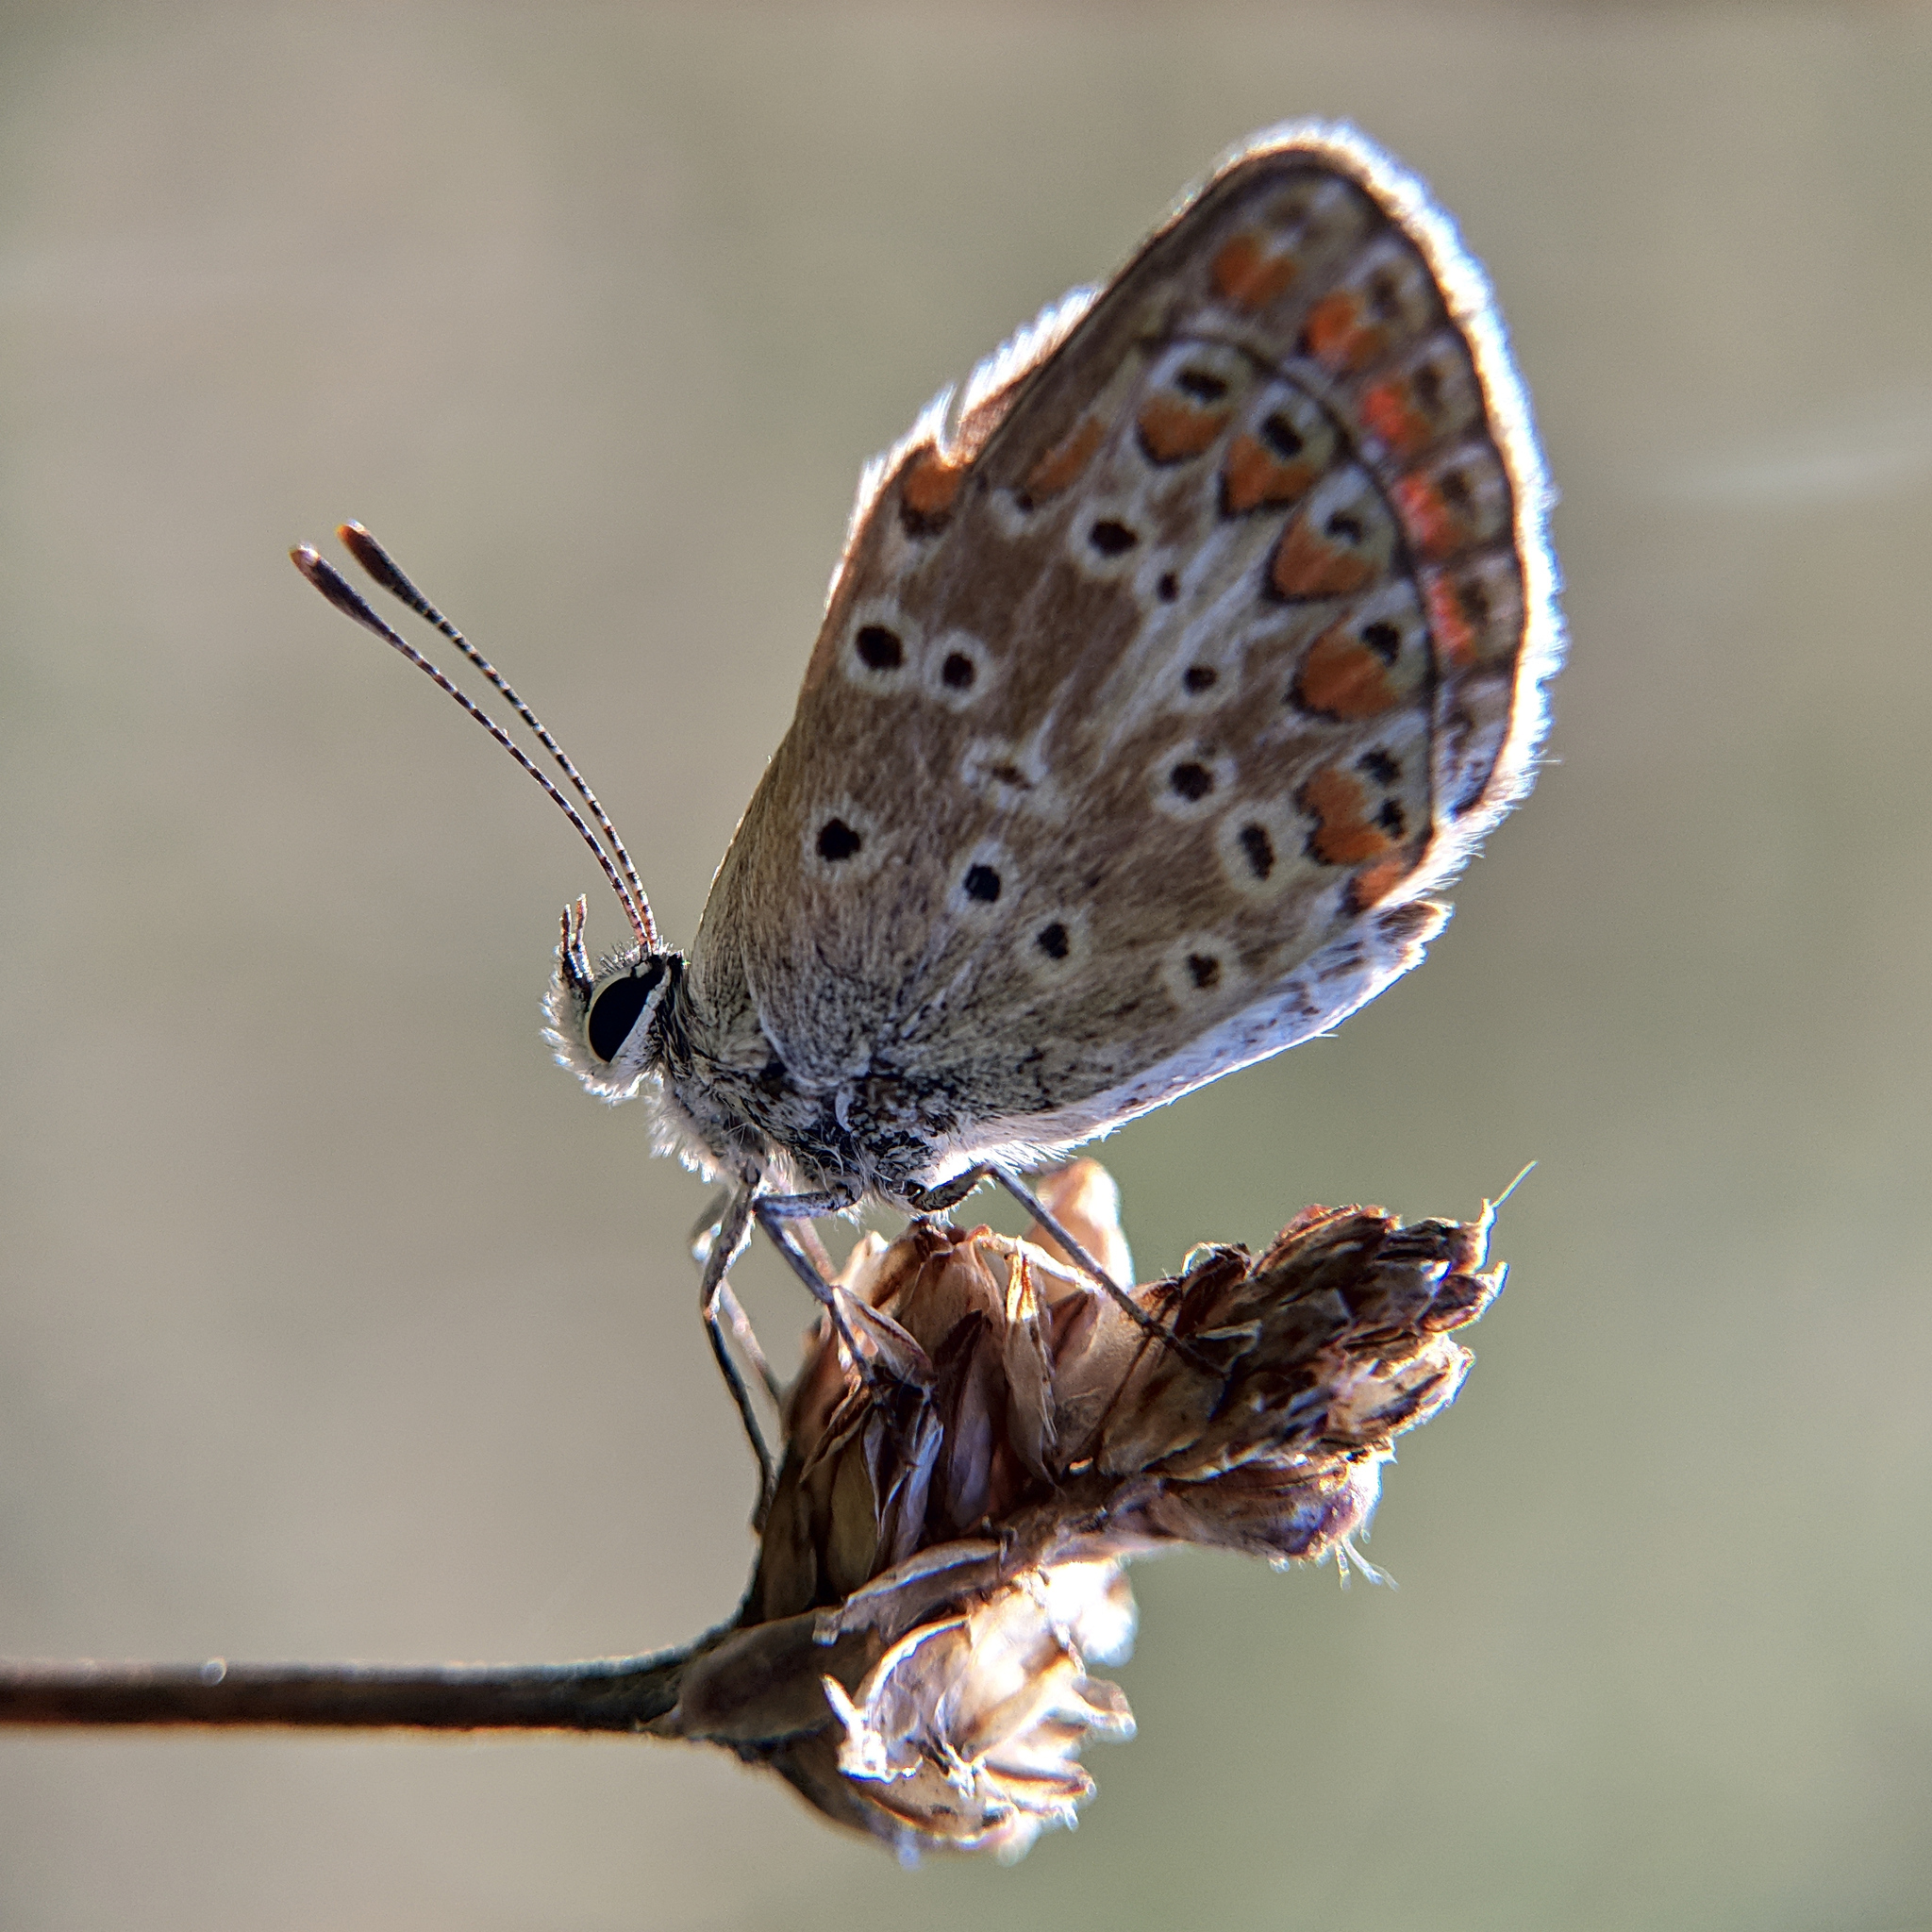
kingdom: Animalia
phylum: Arthropoda
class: Insecta
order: Lepidoptera
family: Lycaenidae
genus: Aricia
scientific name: Aricia agestis
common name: Brown argus
